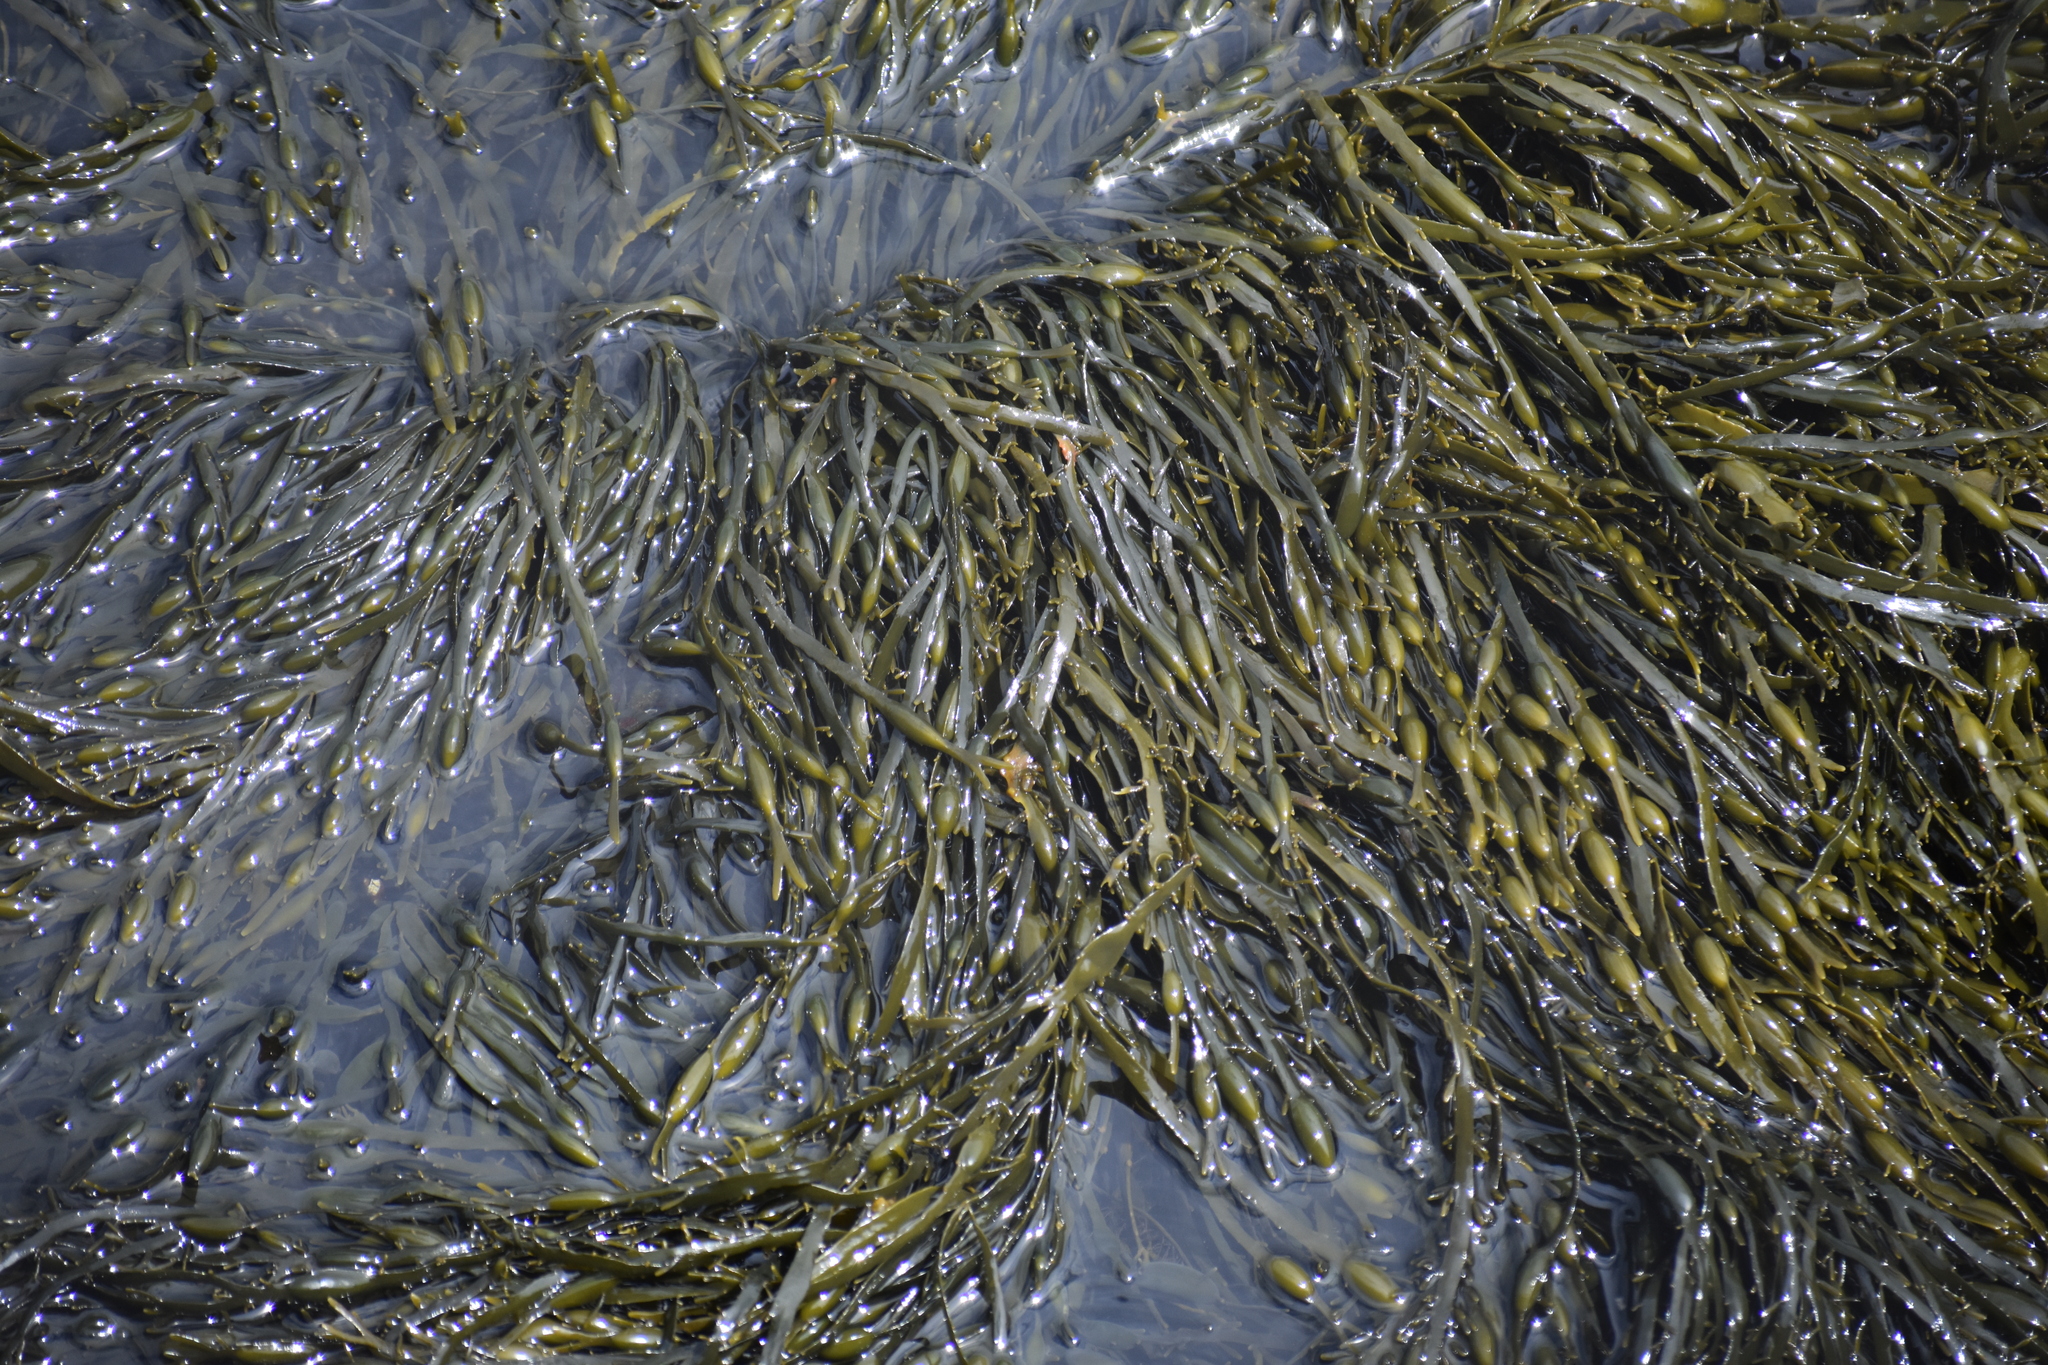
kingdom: Chromista
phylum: Ochrophyta
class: Phaeophyceae
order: Fucales
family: Fucaceae
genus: Ascophyllum
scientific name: Ascophyllum nodosum
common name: Knotted wrack
